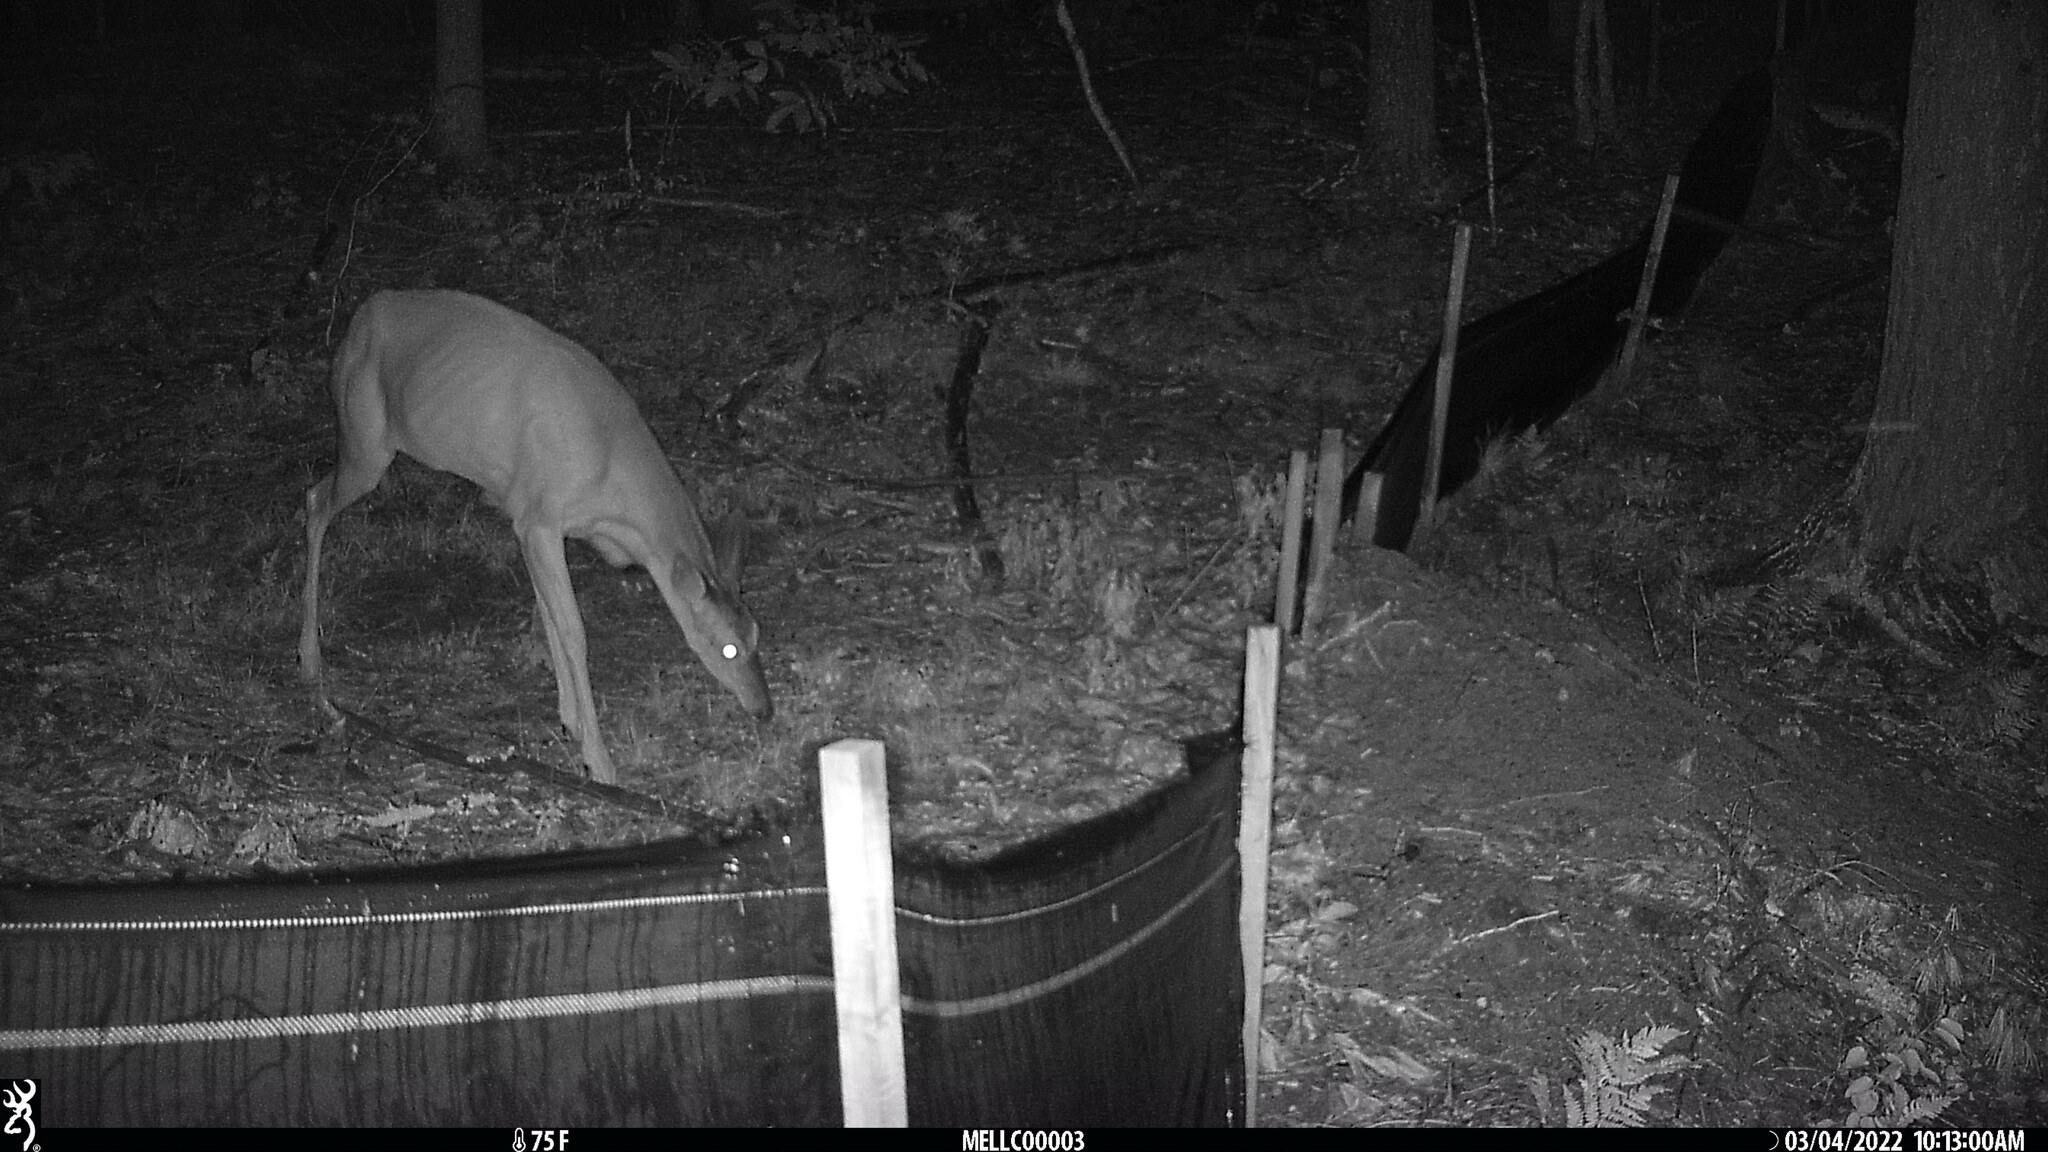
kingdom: Animalia
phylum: Chordata
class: Mammalia
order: Artiodactyla
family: Cervidae
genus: Odocoileus
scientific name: Odocoileus virginianus
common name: White-tailed deer
